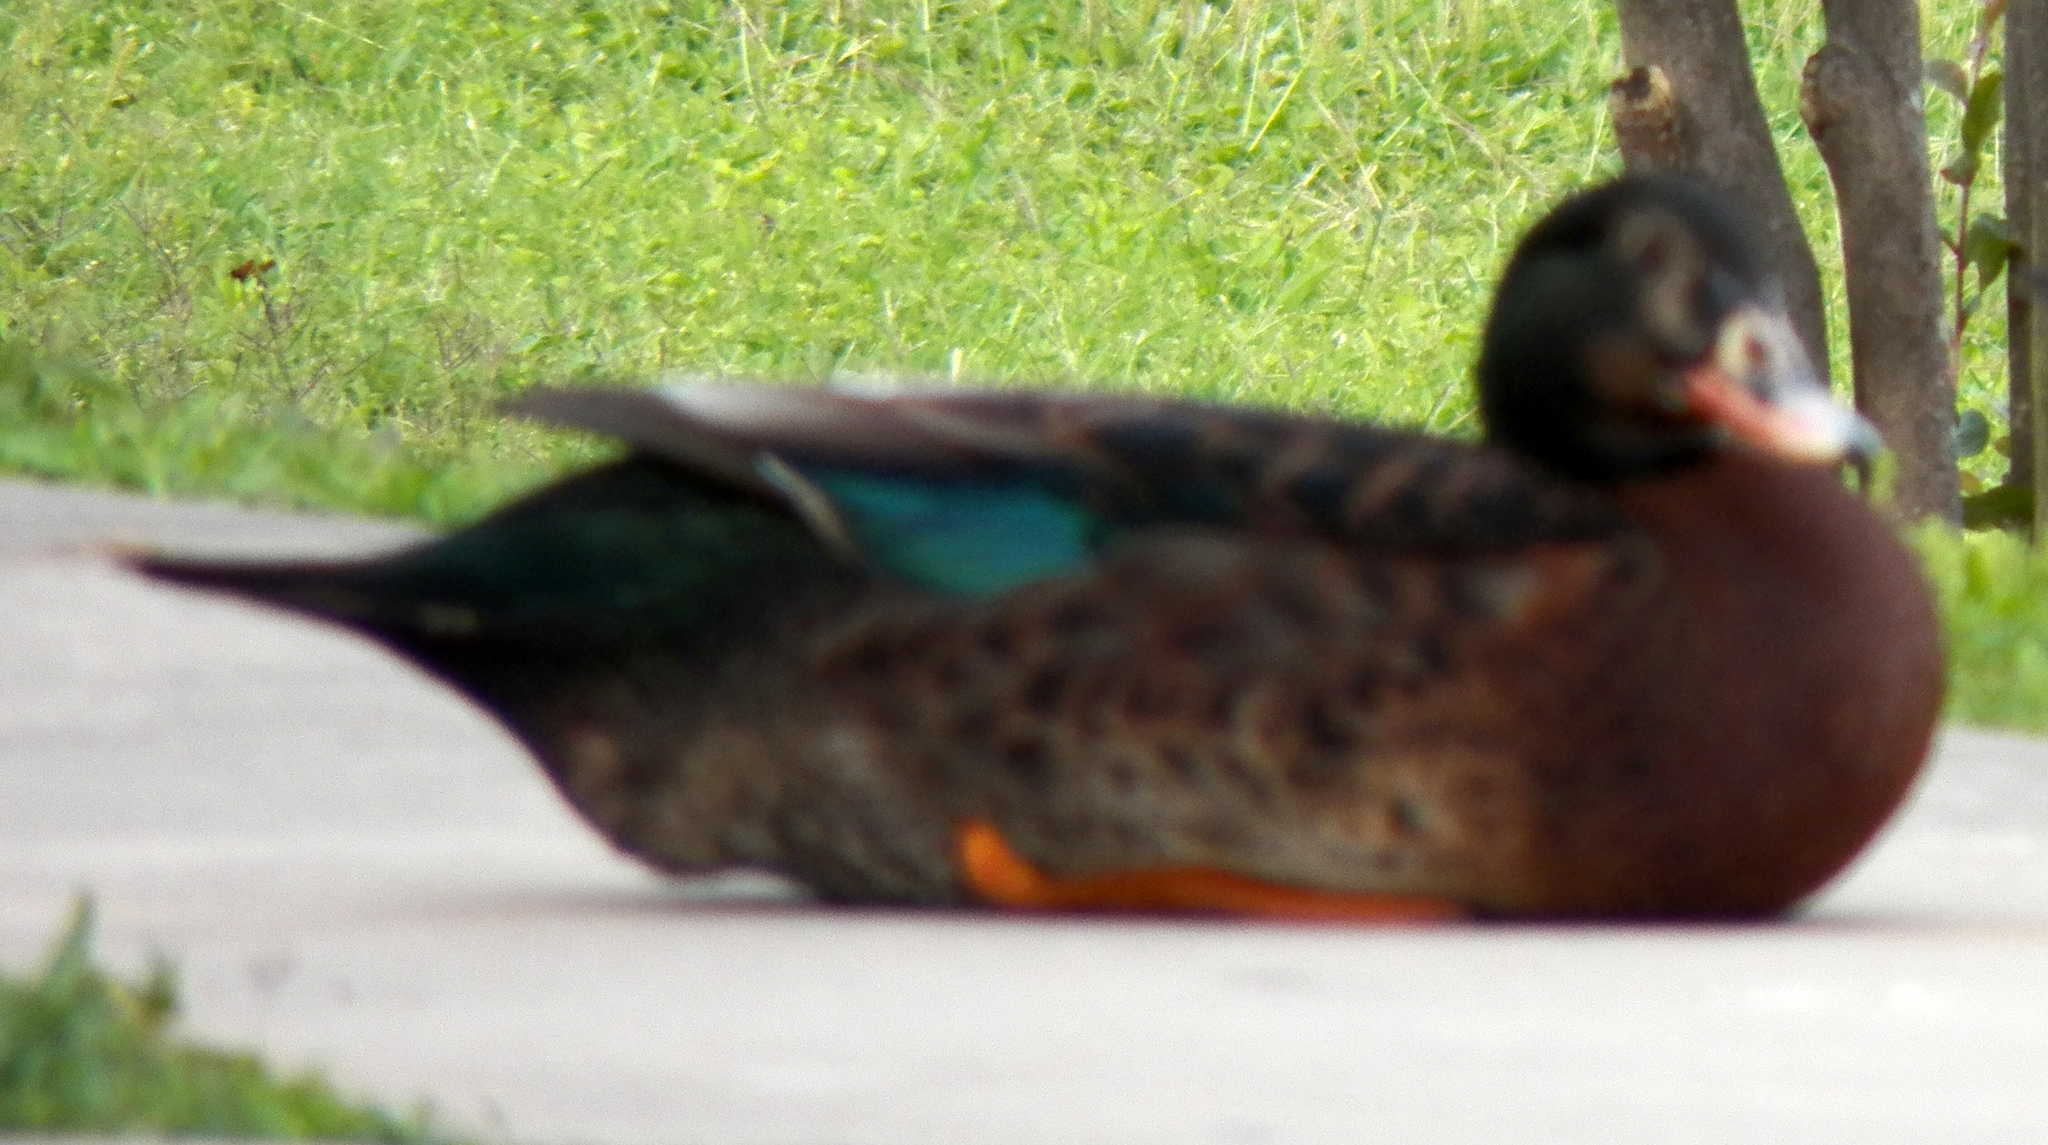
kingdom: Animalia
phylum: Chordata
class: Aves
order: Anseriformes
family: Anatidae
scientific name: Anatidae
